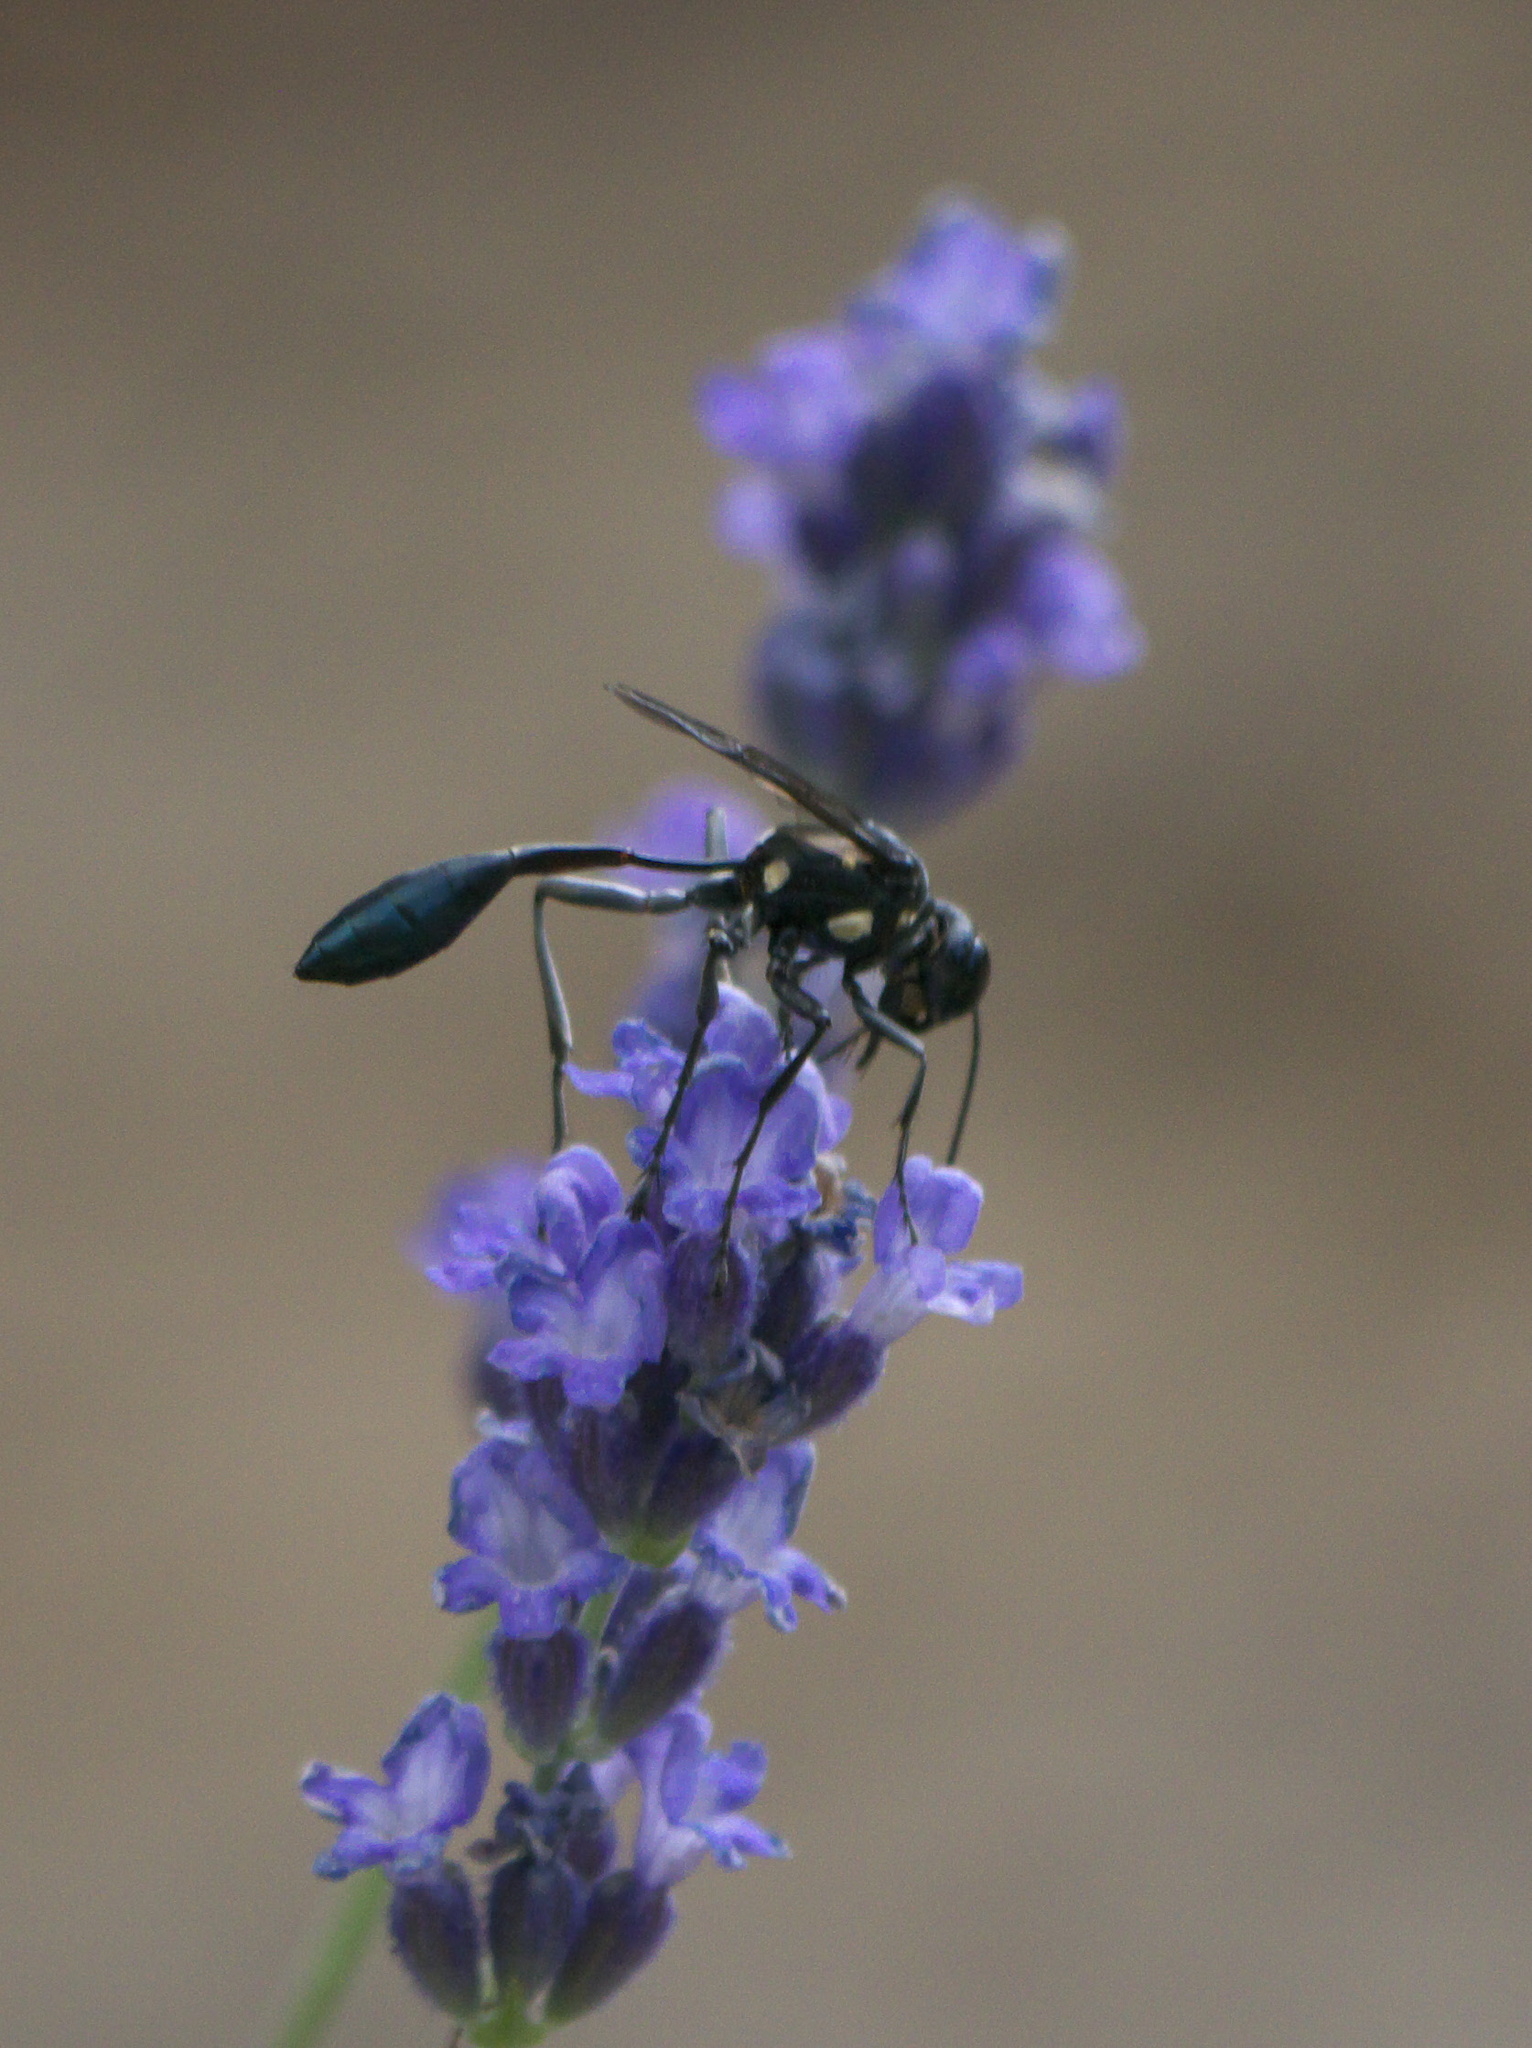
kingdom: Animalia
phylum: Arthropoda
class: Insecta
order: Hymenoptera
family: Sphecidae
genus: Eremnophila
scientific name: Eremnophila aureonotata
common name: Gold-marked thread-waisted wasp
